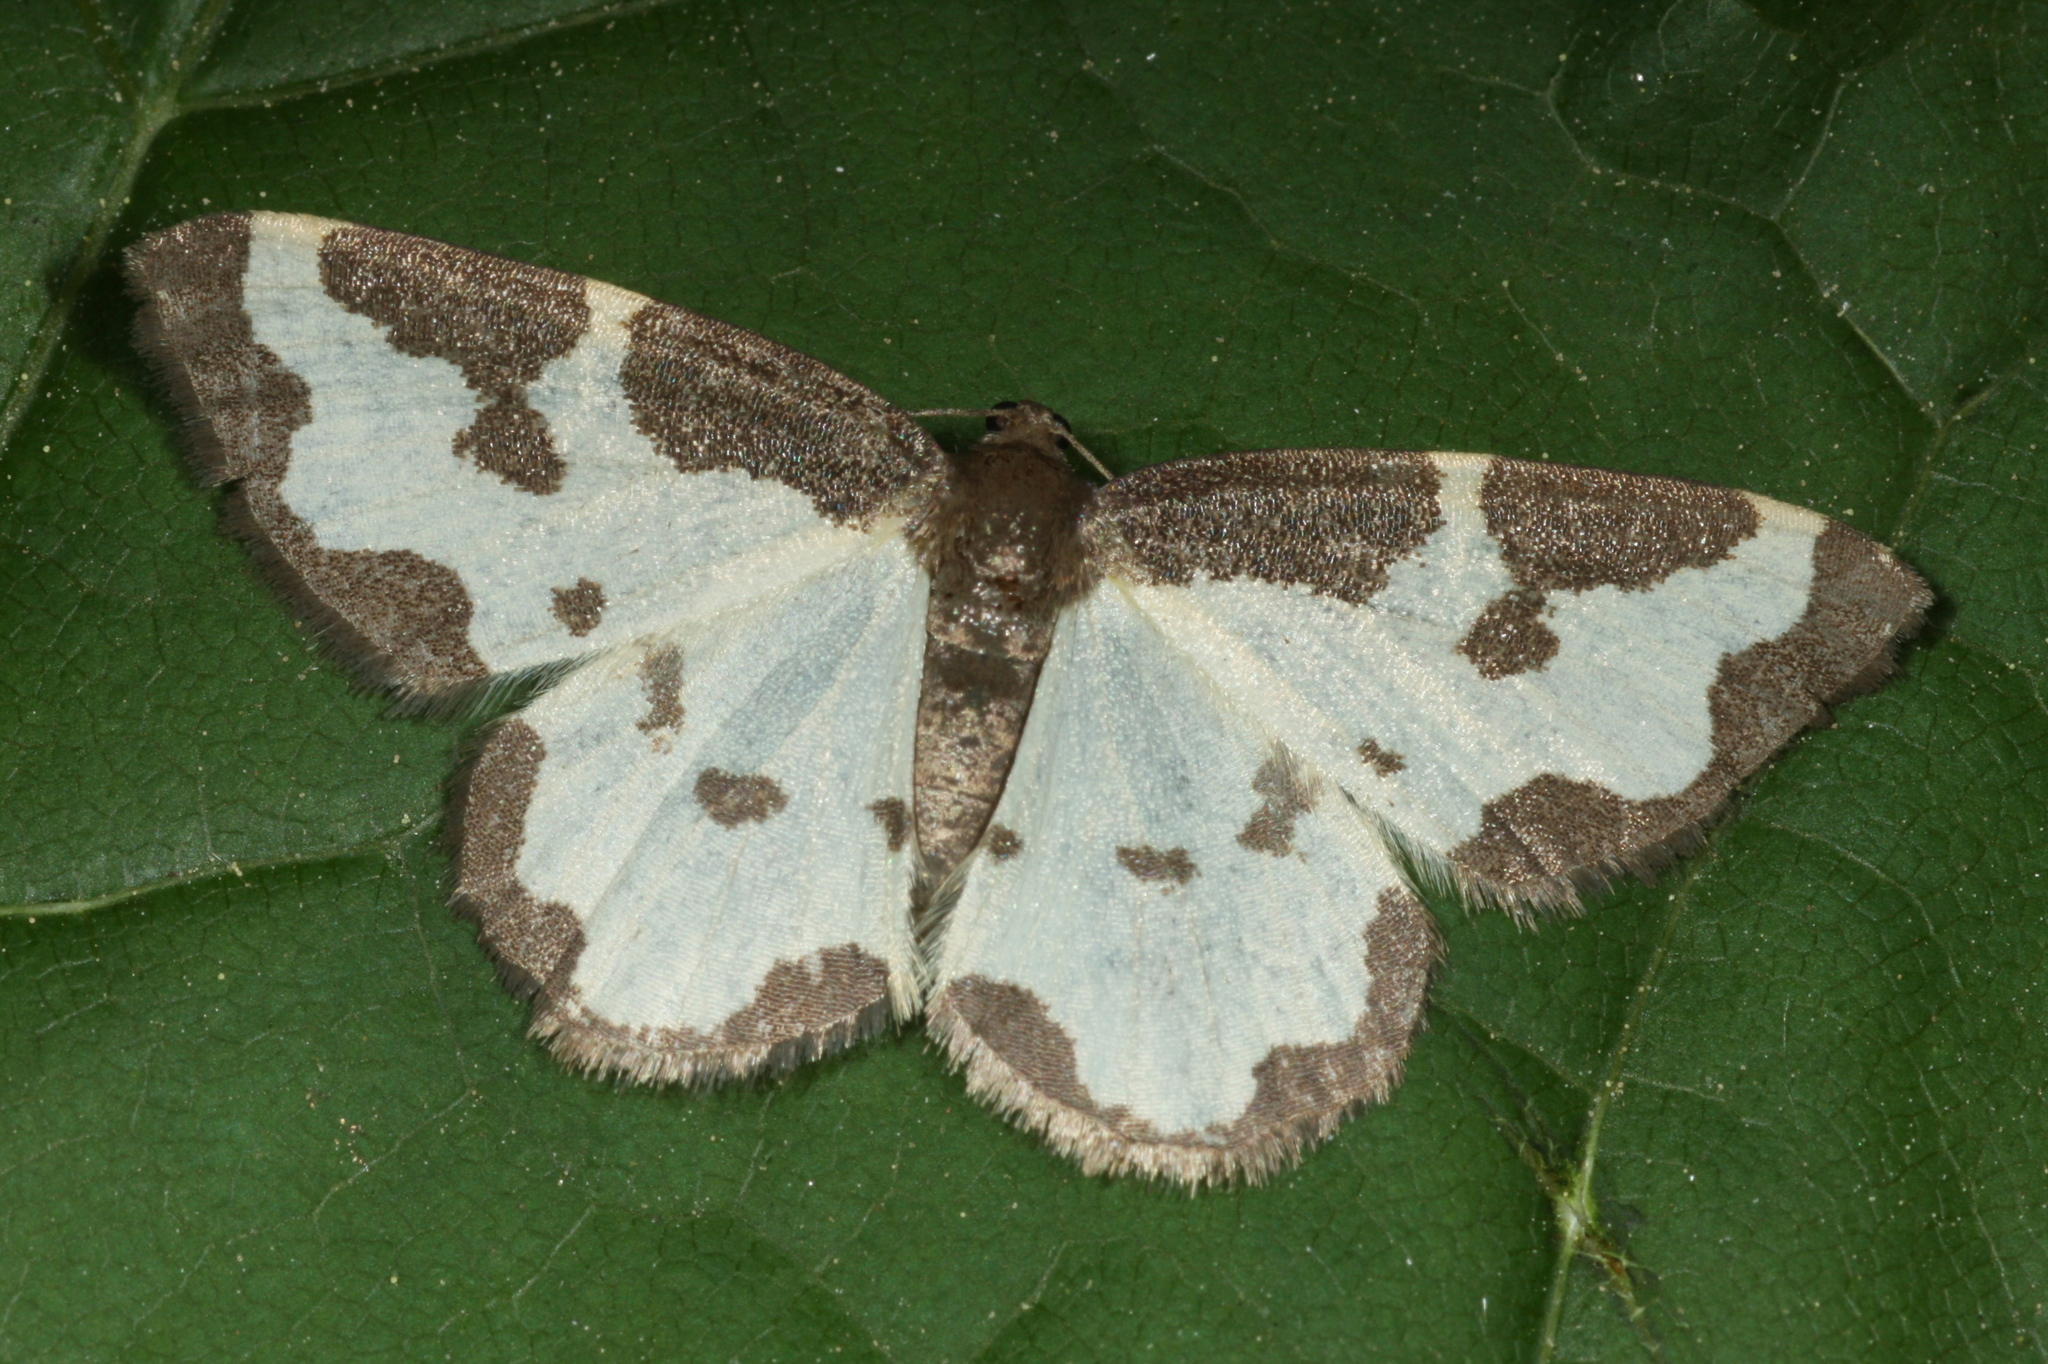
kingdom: Animalia
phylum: Arthropoda
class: Insecta
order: Lepidoptera
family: Geometridae
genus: Lomaspilis
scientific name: Lomaspilis marginata
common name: Clouded border
